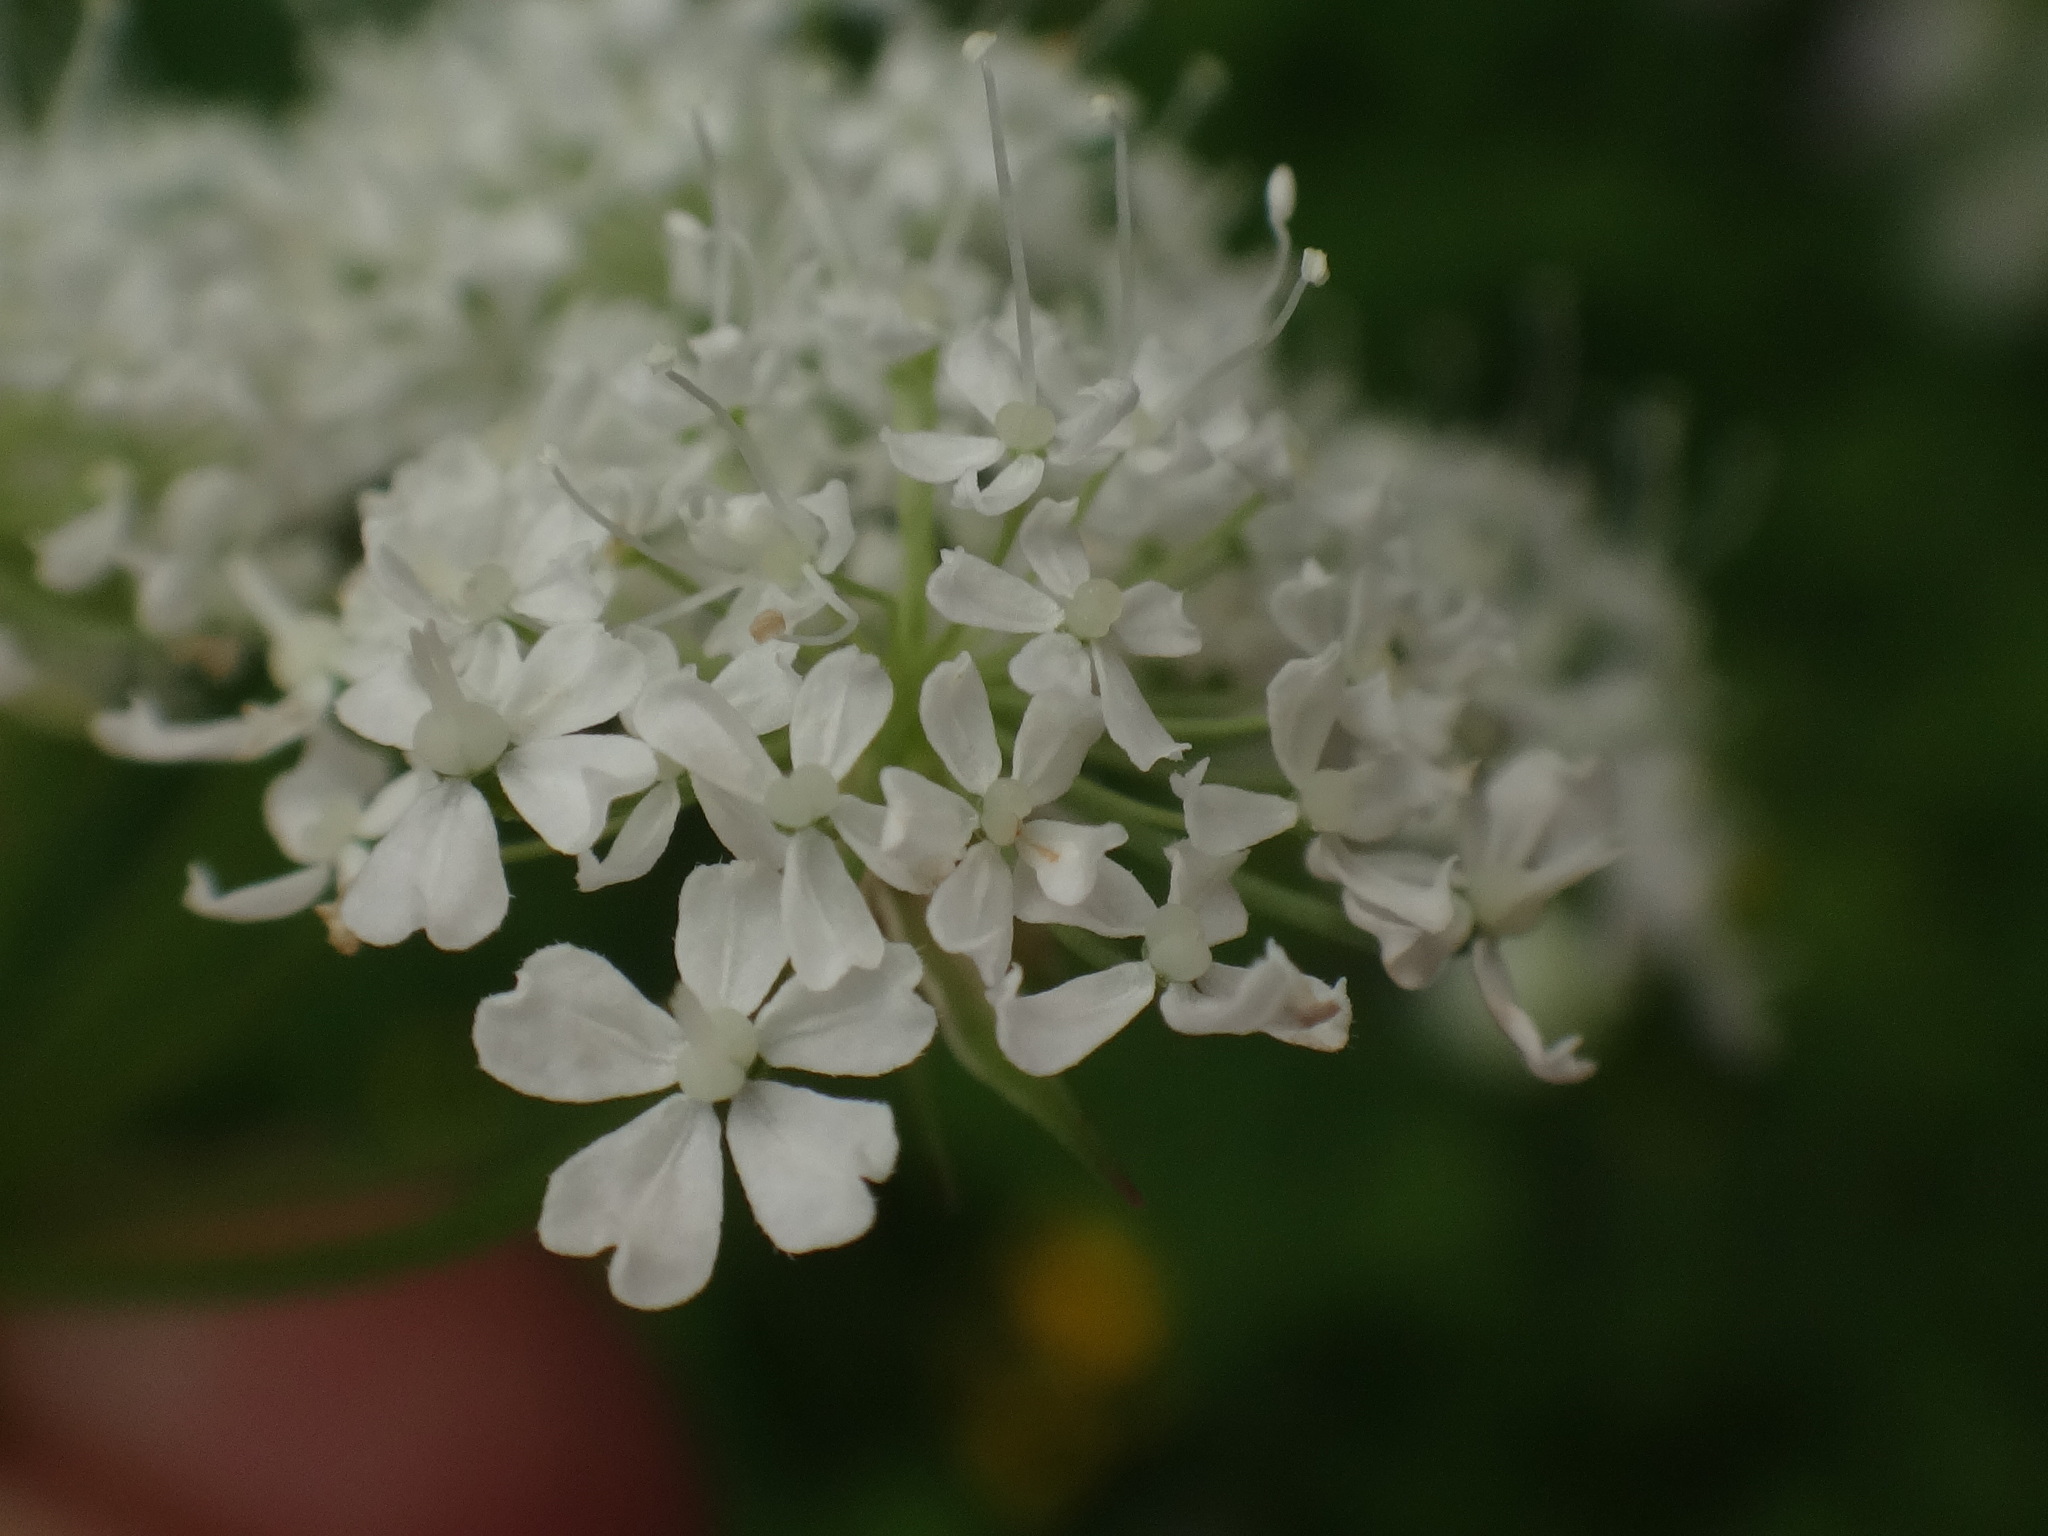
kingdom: Plantae
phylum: Tracheophyta
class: Magnoliopsida
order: Apiales
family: Apiaceae
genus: Chaerophyllum
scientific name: Chaerophyllum hirsutum
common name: Hairy chervil
